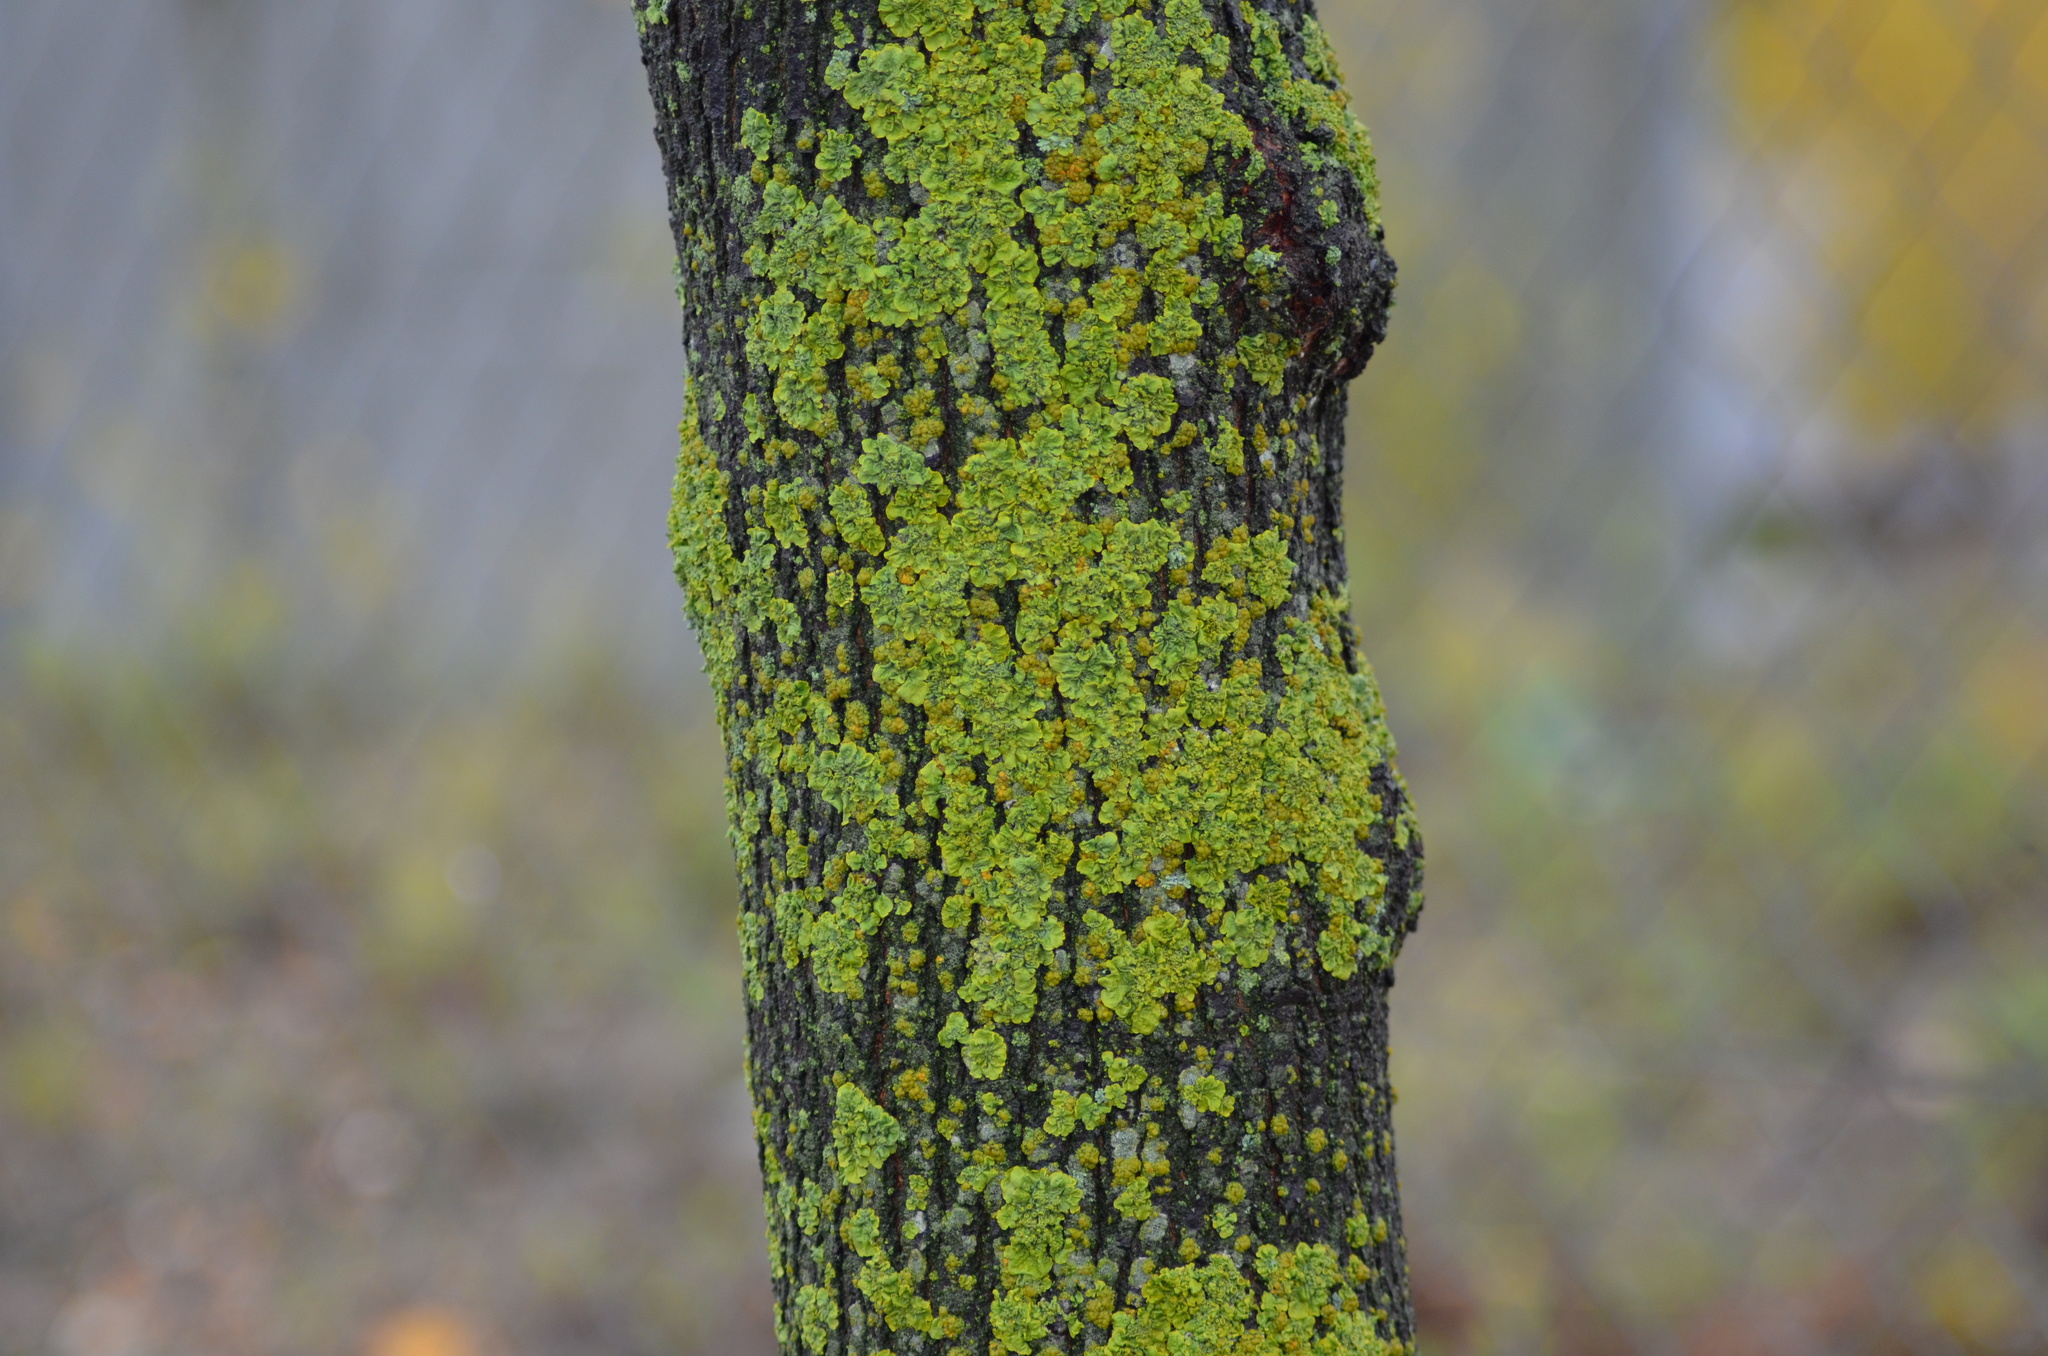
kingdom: Fungi
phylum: Ascomycota
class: Lecanoromycetes
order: Teloschistales
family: Teloschistaceae
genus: Xanthoria
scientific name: Xanthoria parietina
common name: Common orange lichen
